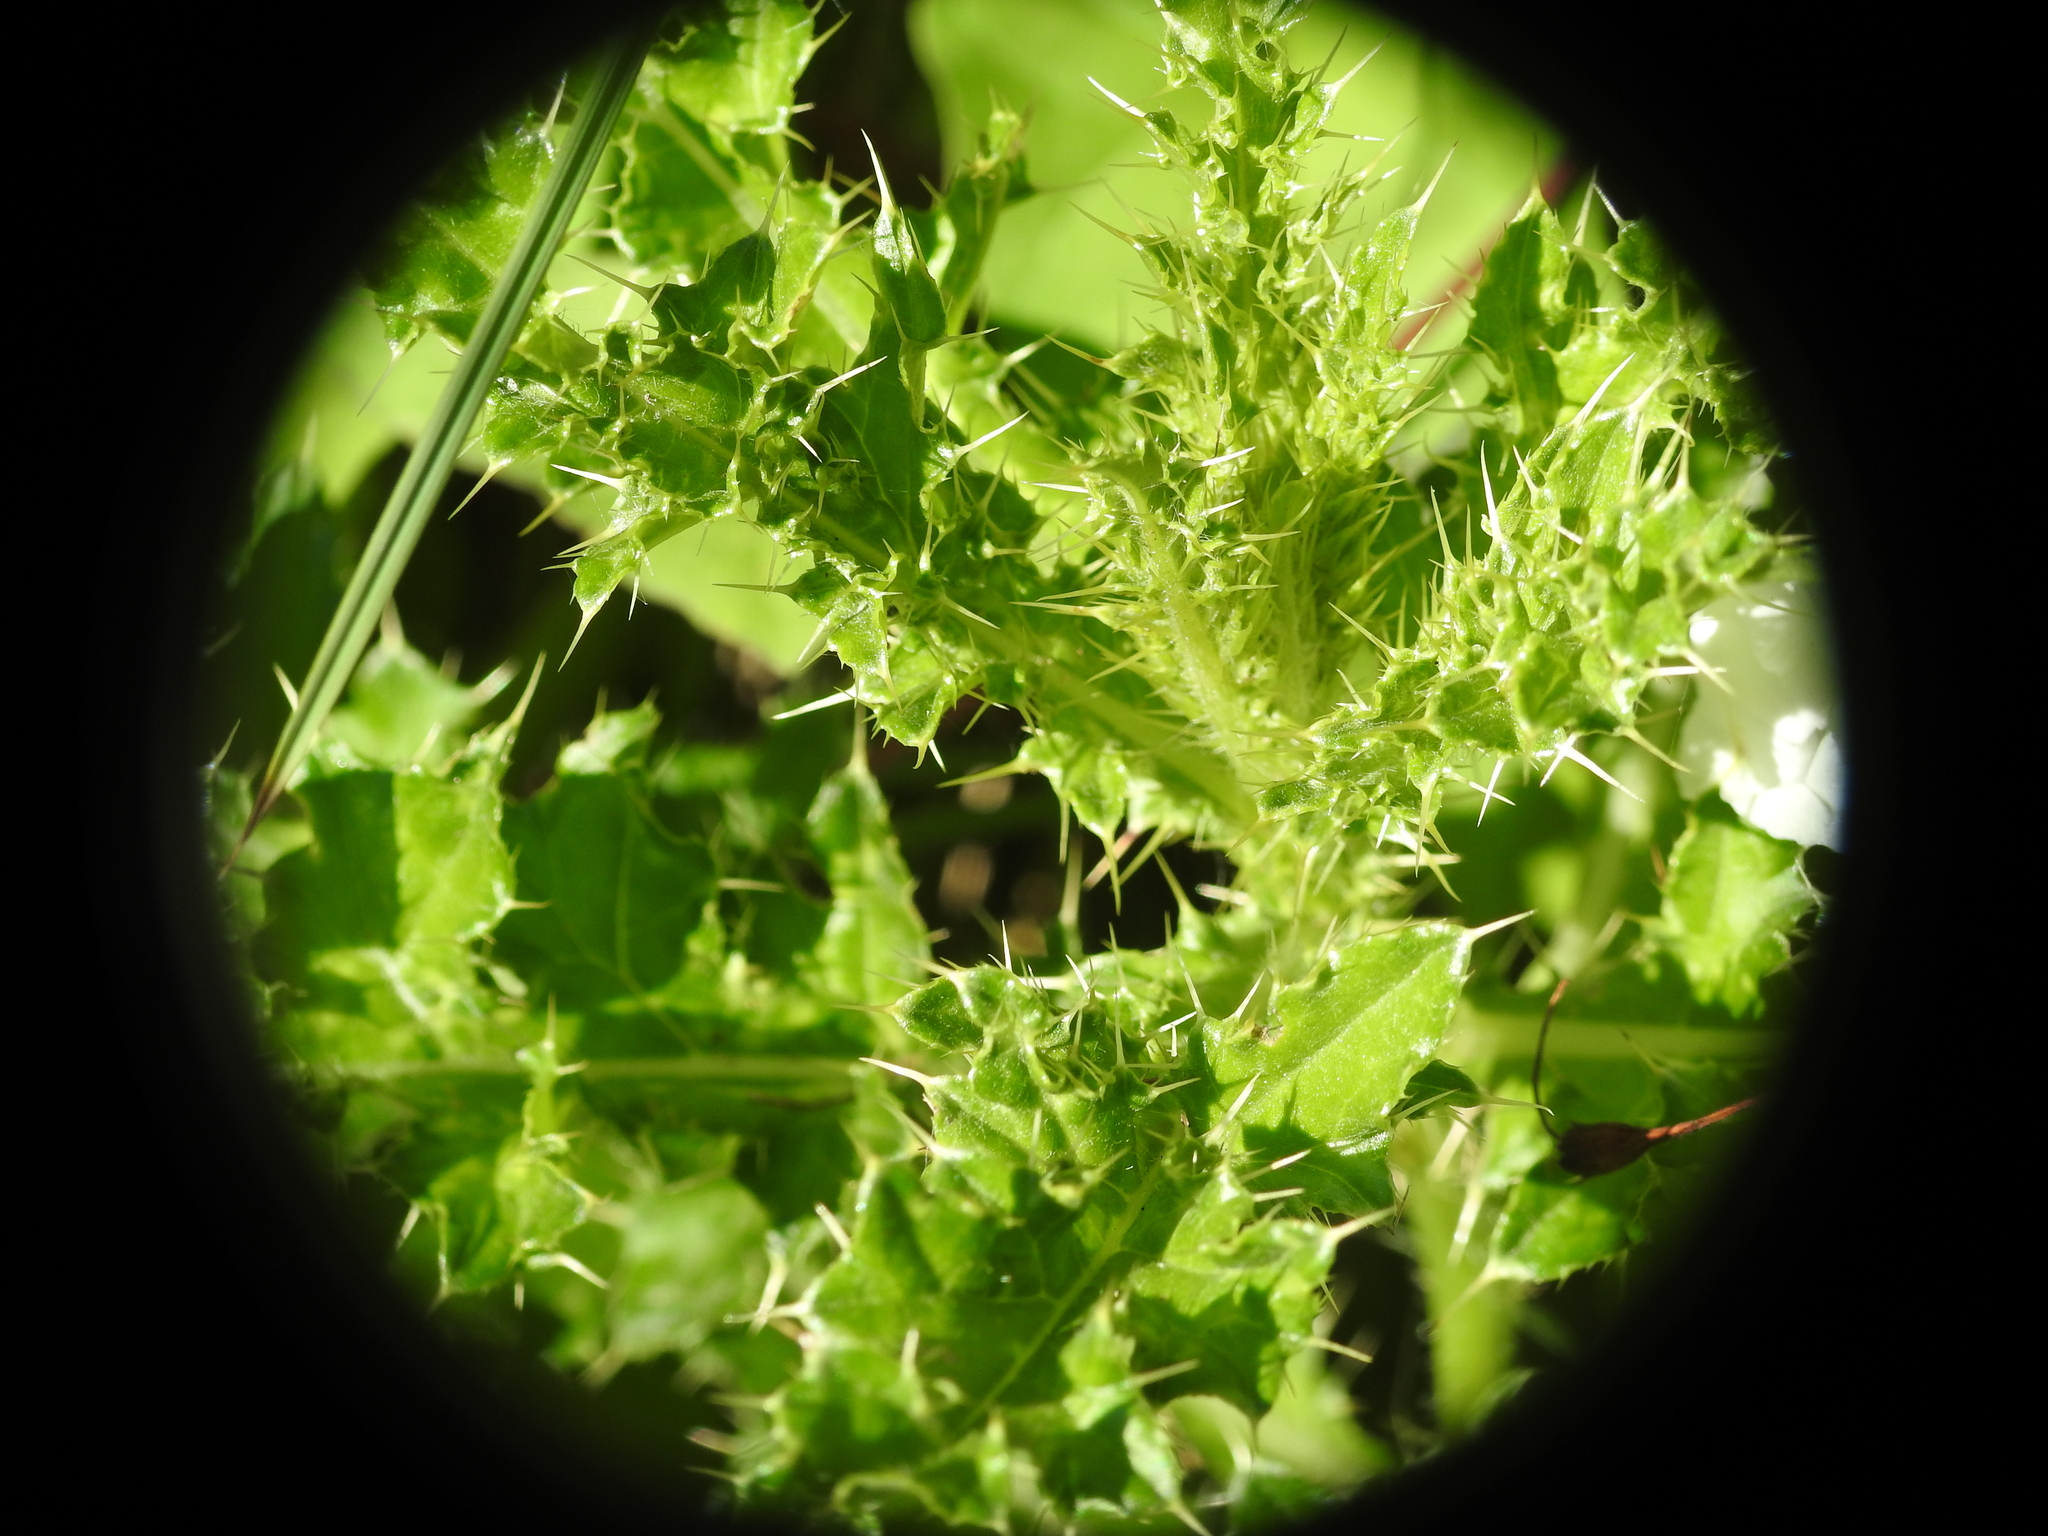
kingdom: Plantae
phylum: Tracheophyta
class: Magnoliopsida
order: Asterales
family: Asteraceae
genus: Cirsium
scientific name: Cirsium arvense
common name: Creeping thistle
